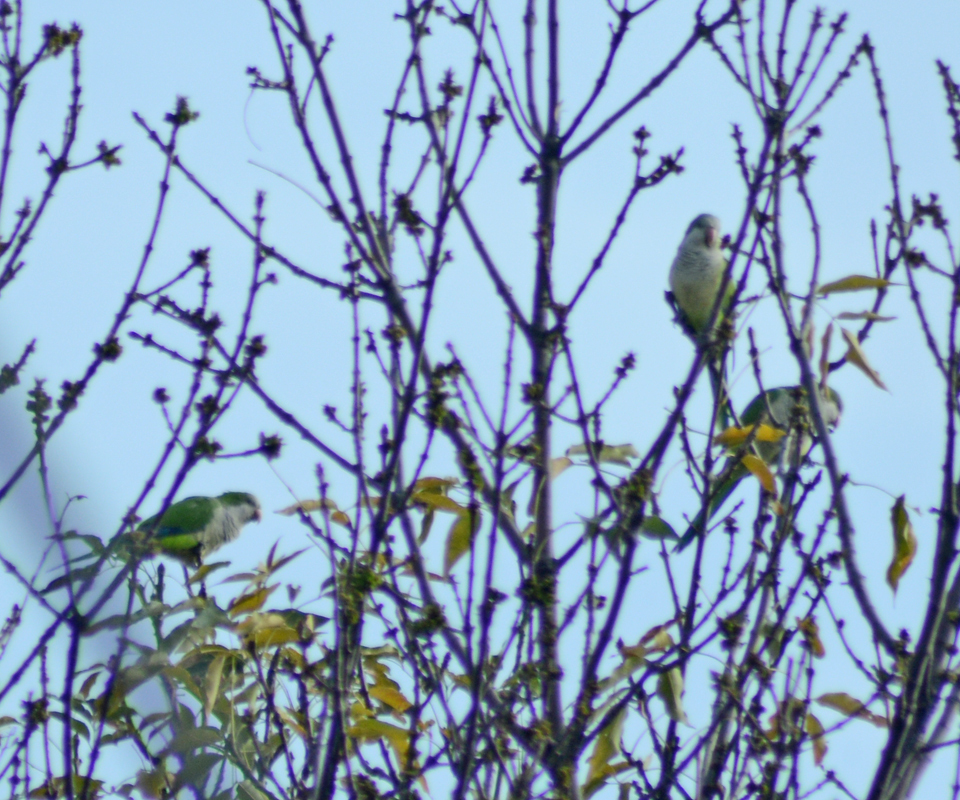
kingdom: Animalia
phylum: Chordata
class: Aves
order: Psittaciformes
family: Psittacidae
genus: Myiopsitta
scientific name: Myiopsitta monachus
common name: Monk parakeet
